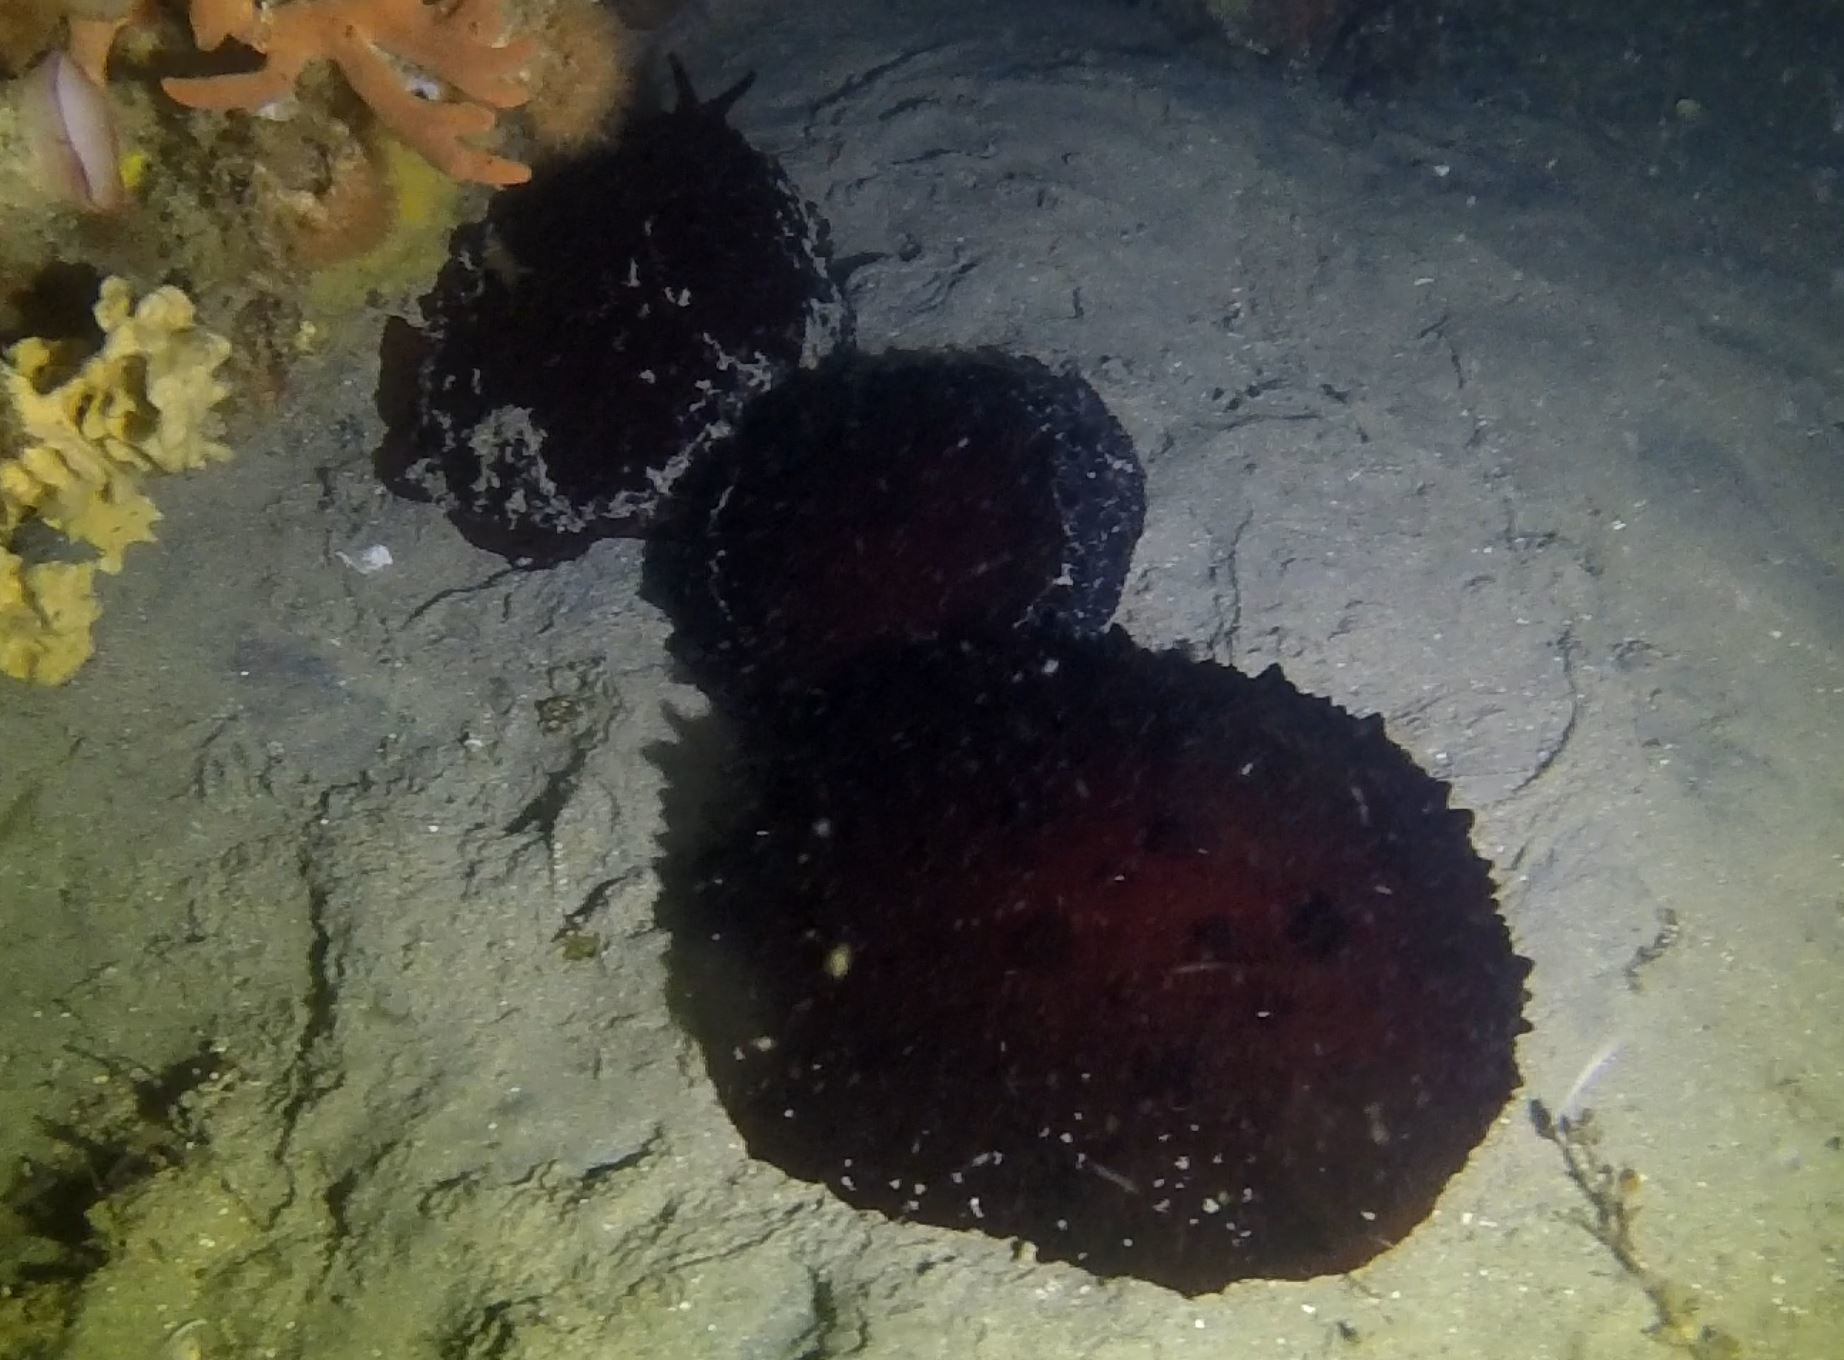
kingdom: Animalia
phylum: Mollusca
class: Gastropoda
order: Pleurobranchida
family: Pleurobranchidae
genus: Pleurobranchus
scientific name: Pleurobranchus hilli
